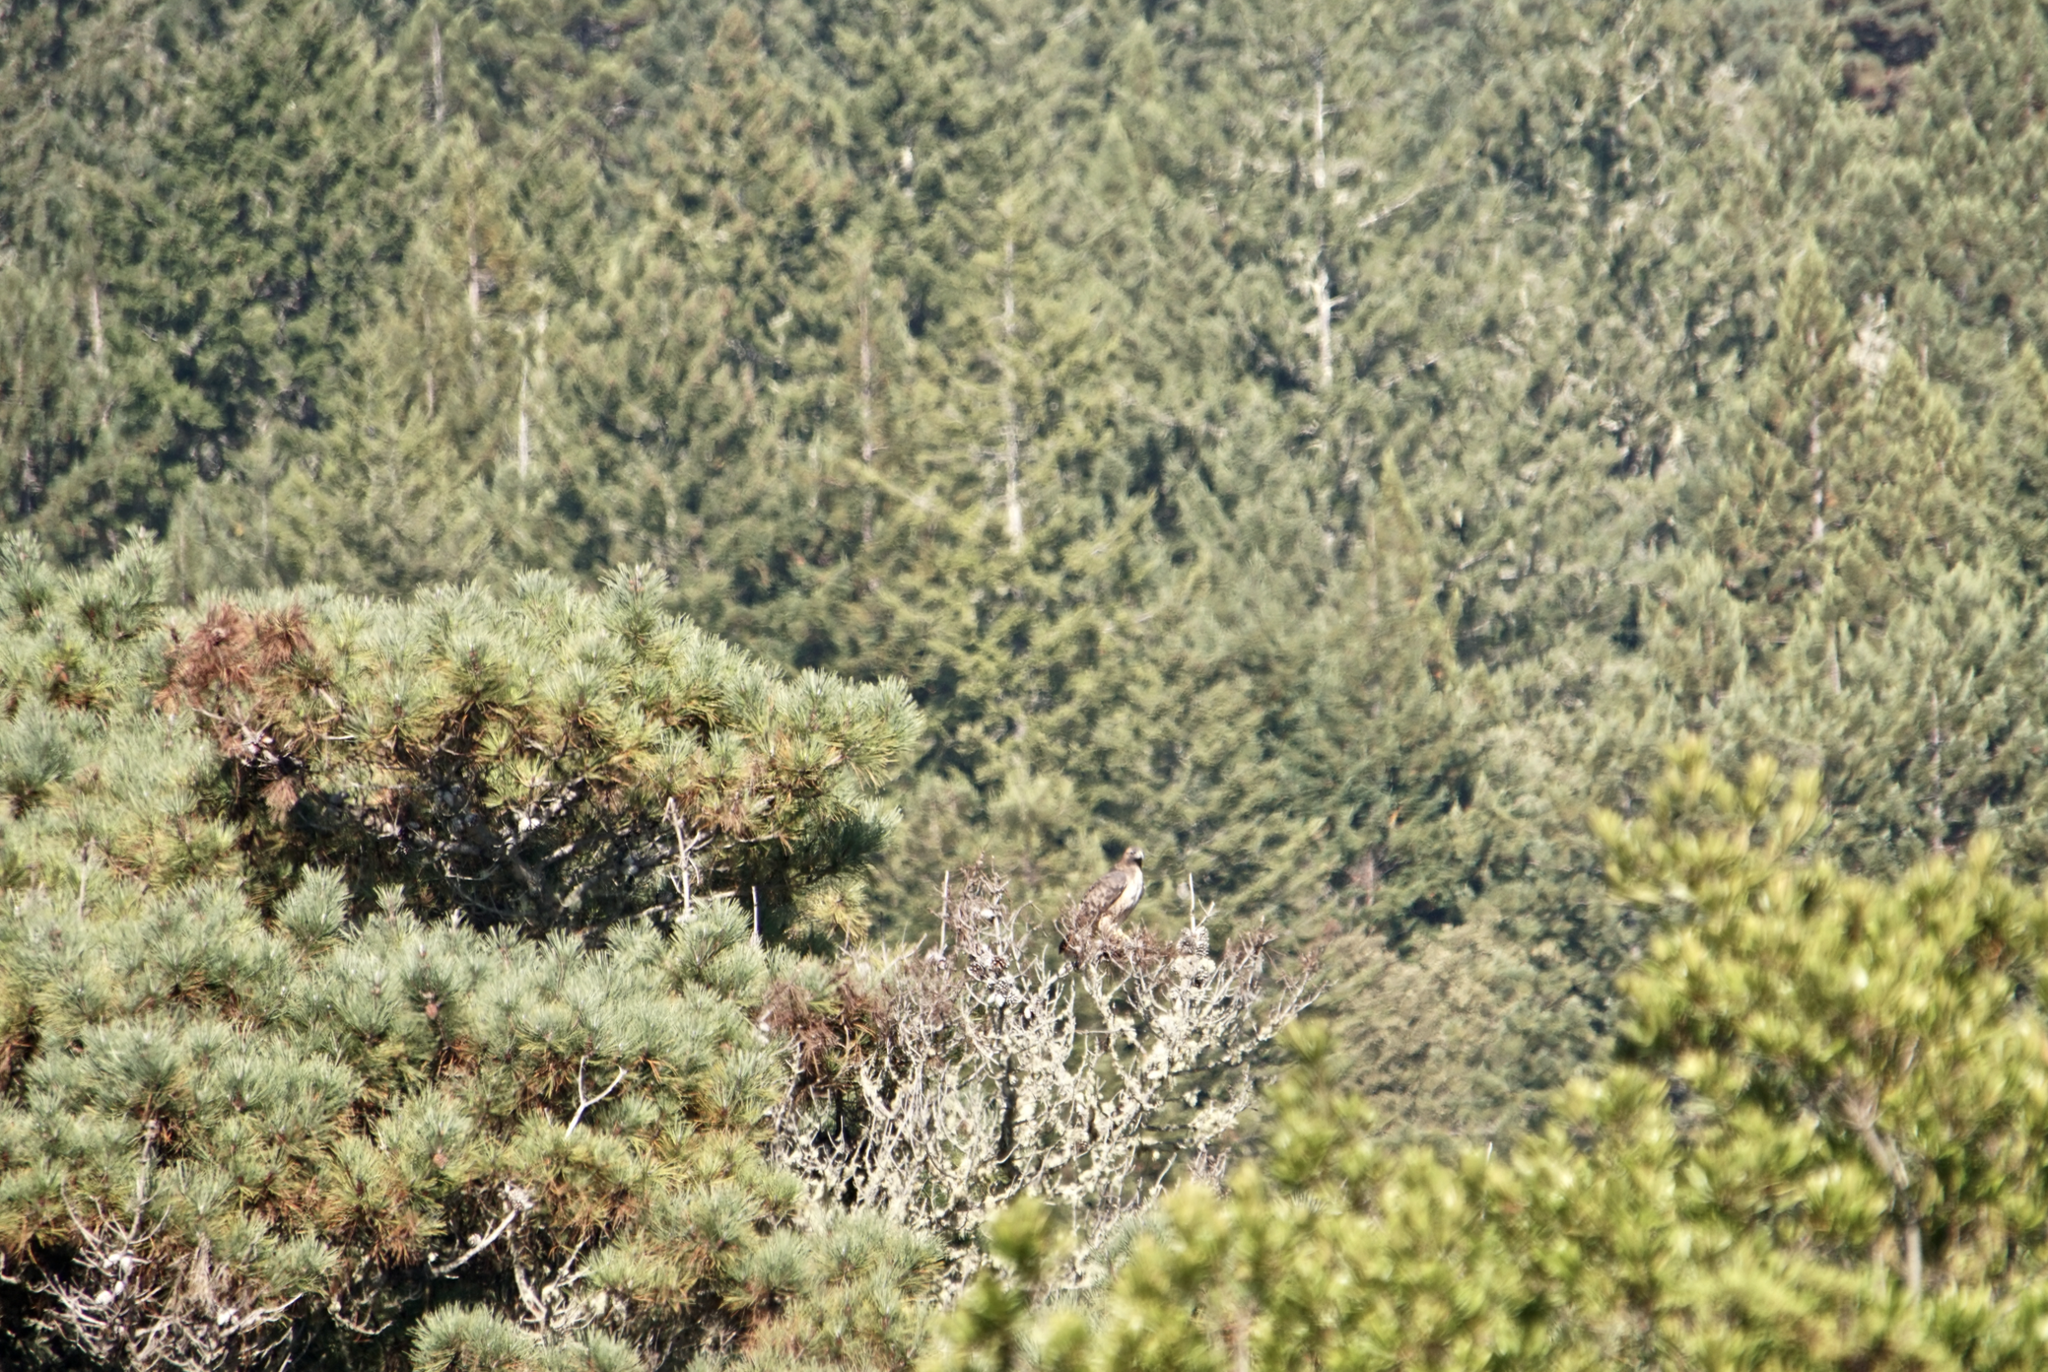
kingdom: Animalia
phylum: Chordata
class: Aves
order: Accipitriformes
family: Accipitridae
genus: Buteo
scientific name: Buteo jamaicensis
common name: Red-tailed hawk
